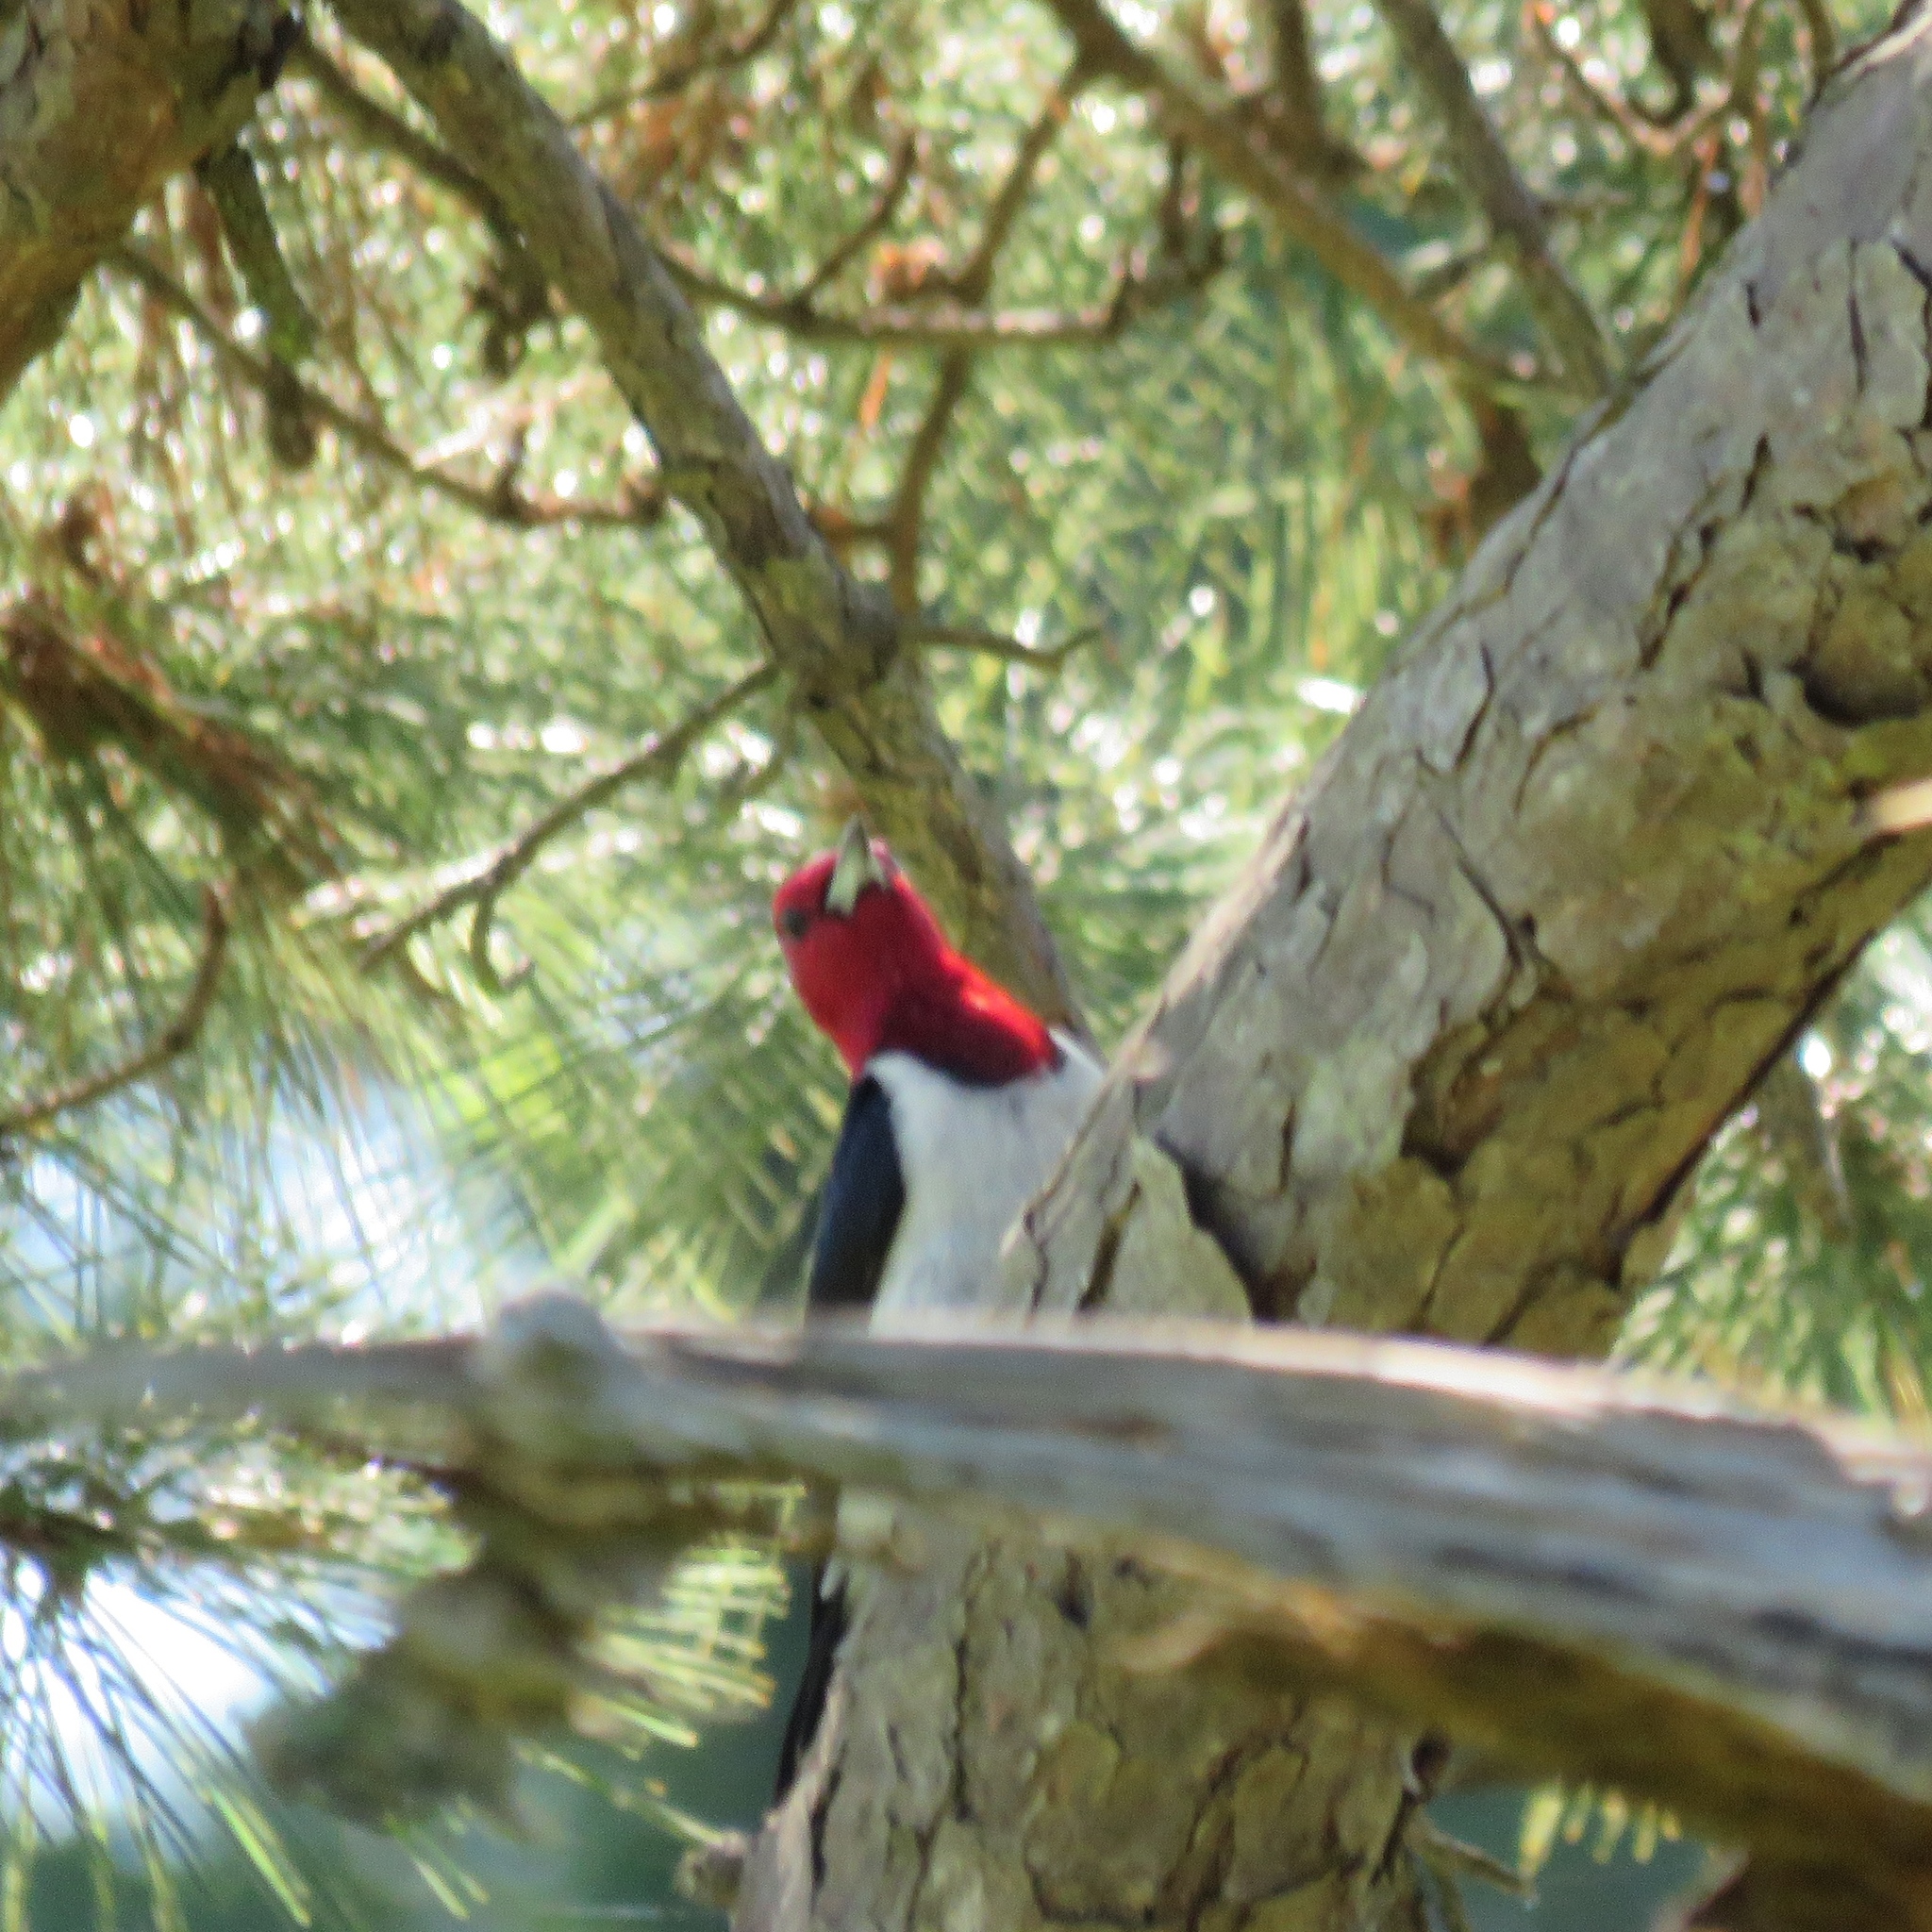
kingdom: Animalia
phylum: Chordata
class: Aves
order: Piciformes
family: Picidae
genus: Melanerpes
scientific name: Melanerpes erythrocephalus
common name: Red-headed woodpecker
